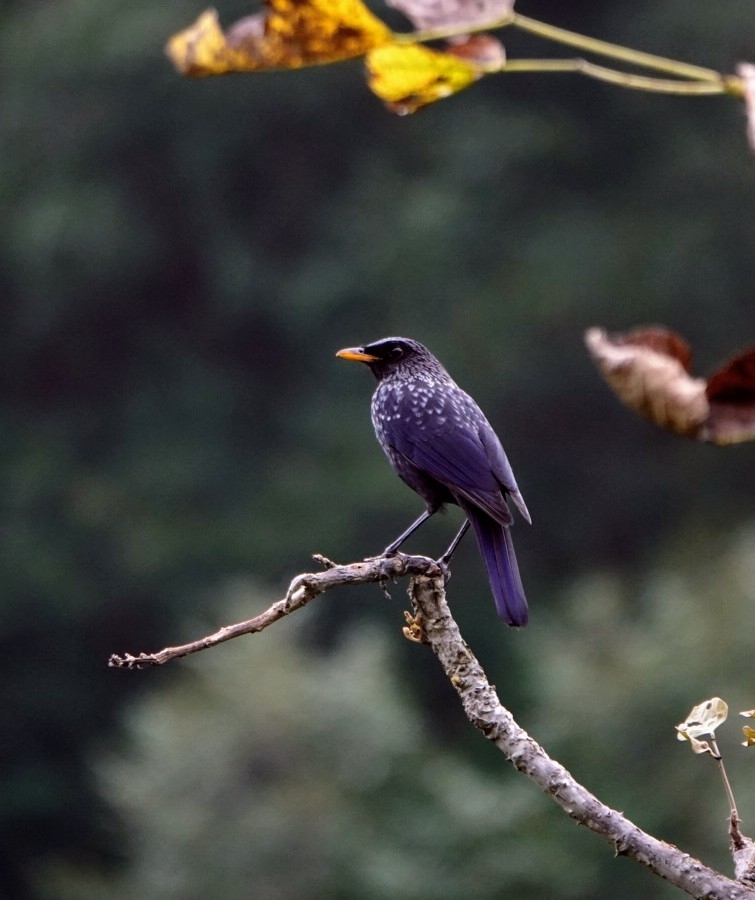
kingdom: Animalia
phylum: Chordata
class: Aves
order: Passeriformes
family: Muscicapidae
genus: Myophonus
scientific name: Myophonus caeruleus
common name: Blue whistling-thrush
